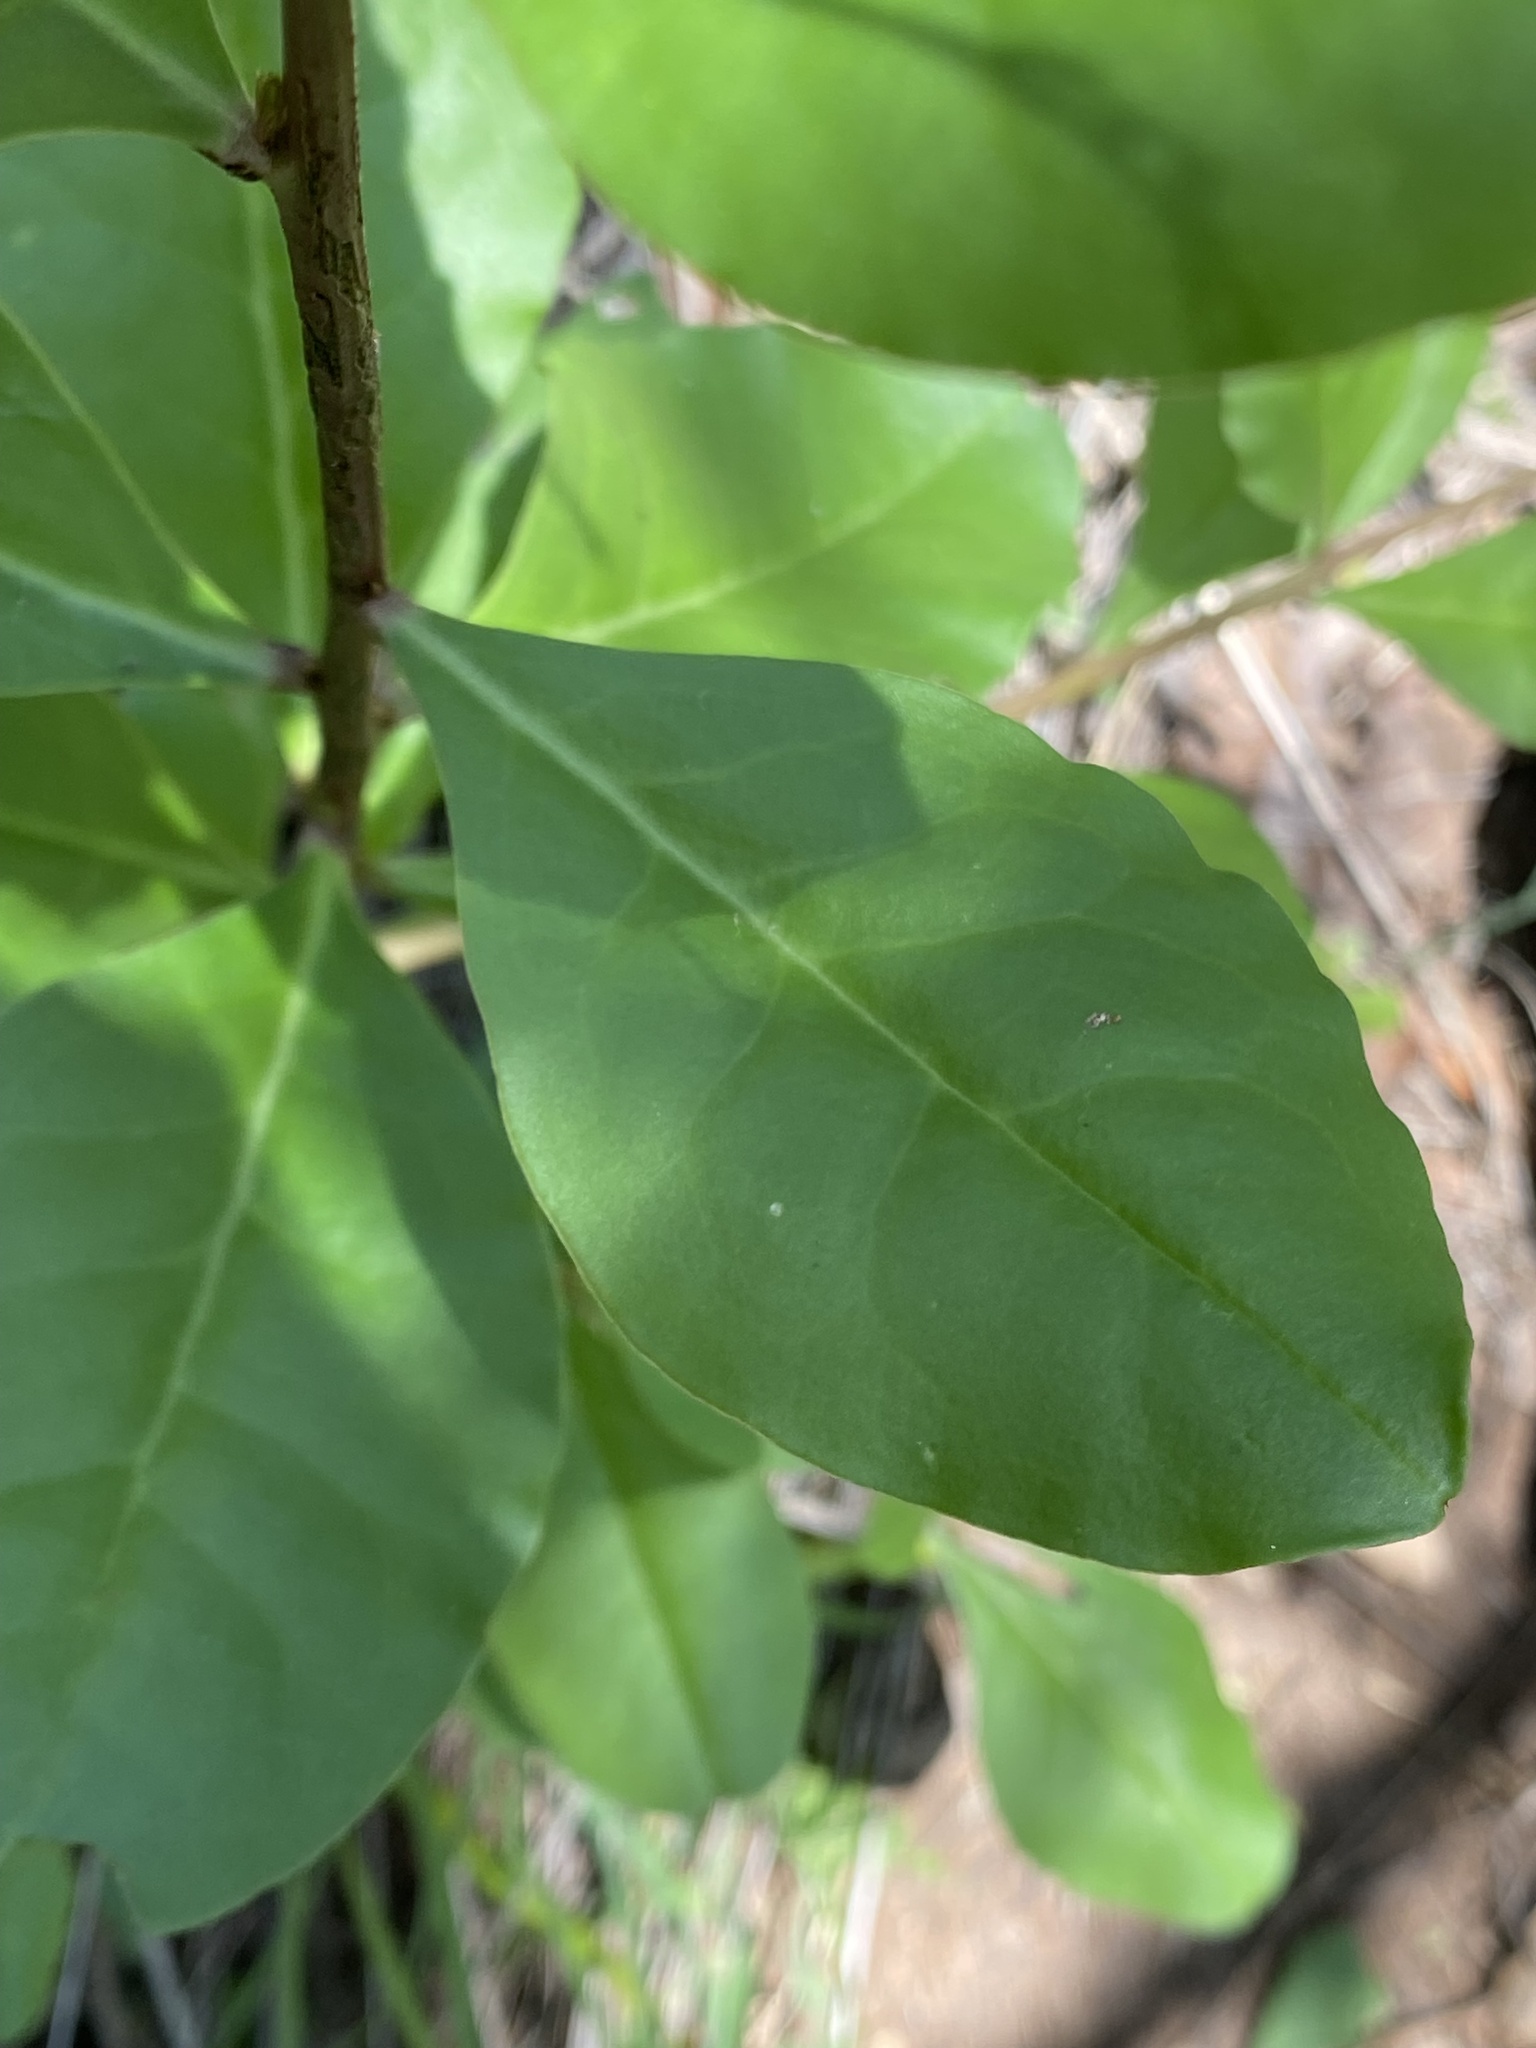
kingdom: Plantae
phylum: Tracheophyta
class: Magnoliopsida
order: Caryophyllales
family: Talinaceae
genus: Talinum
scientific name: Talinum sonorae
